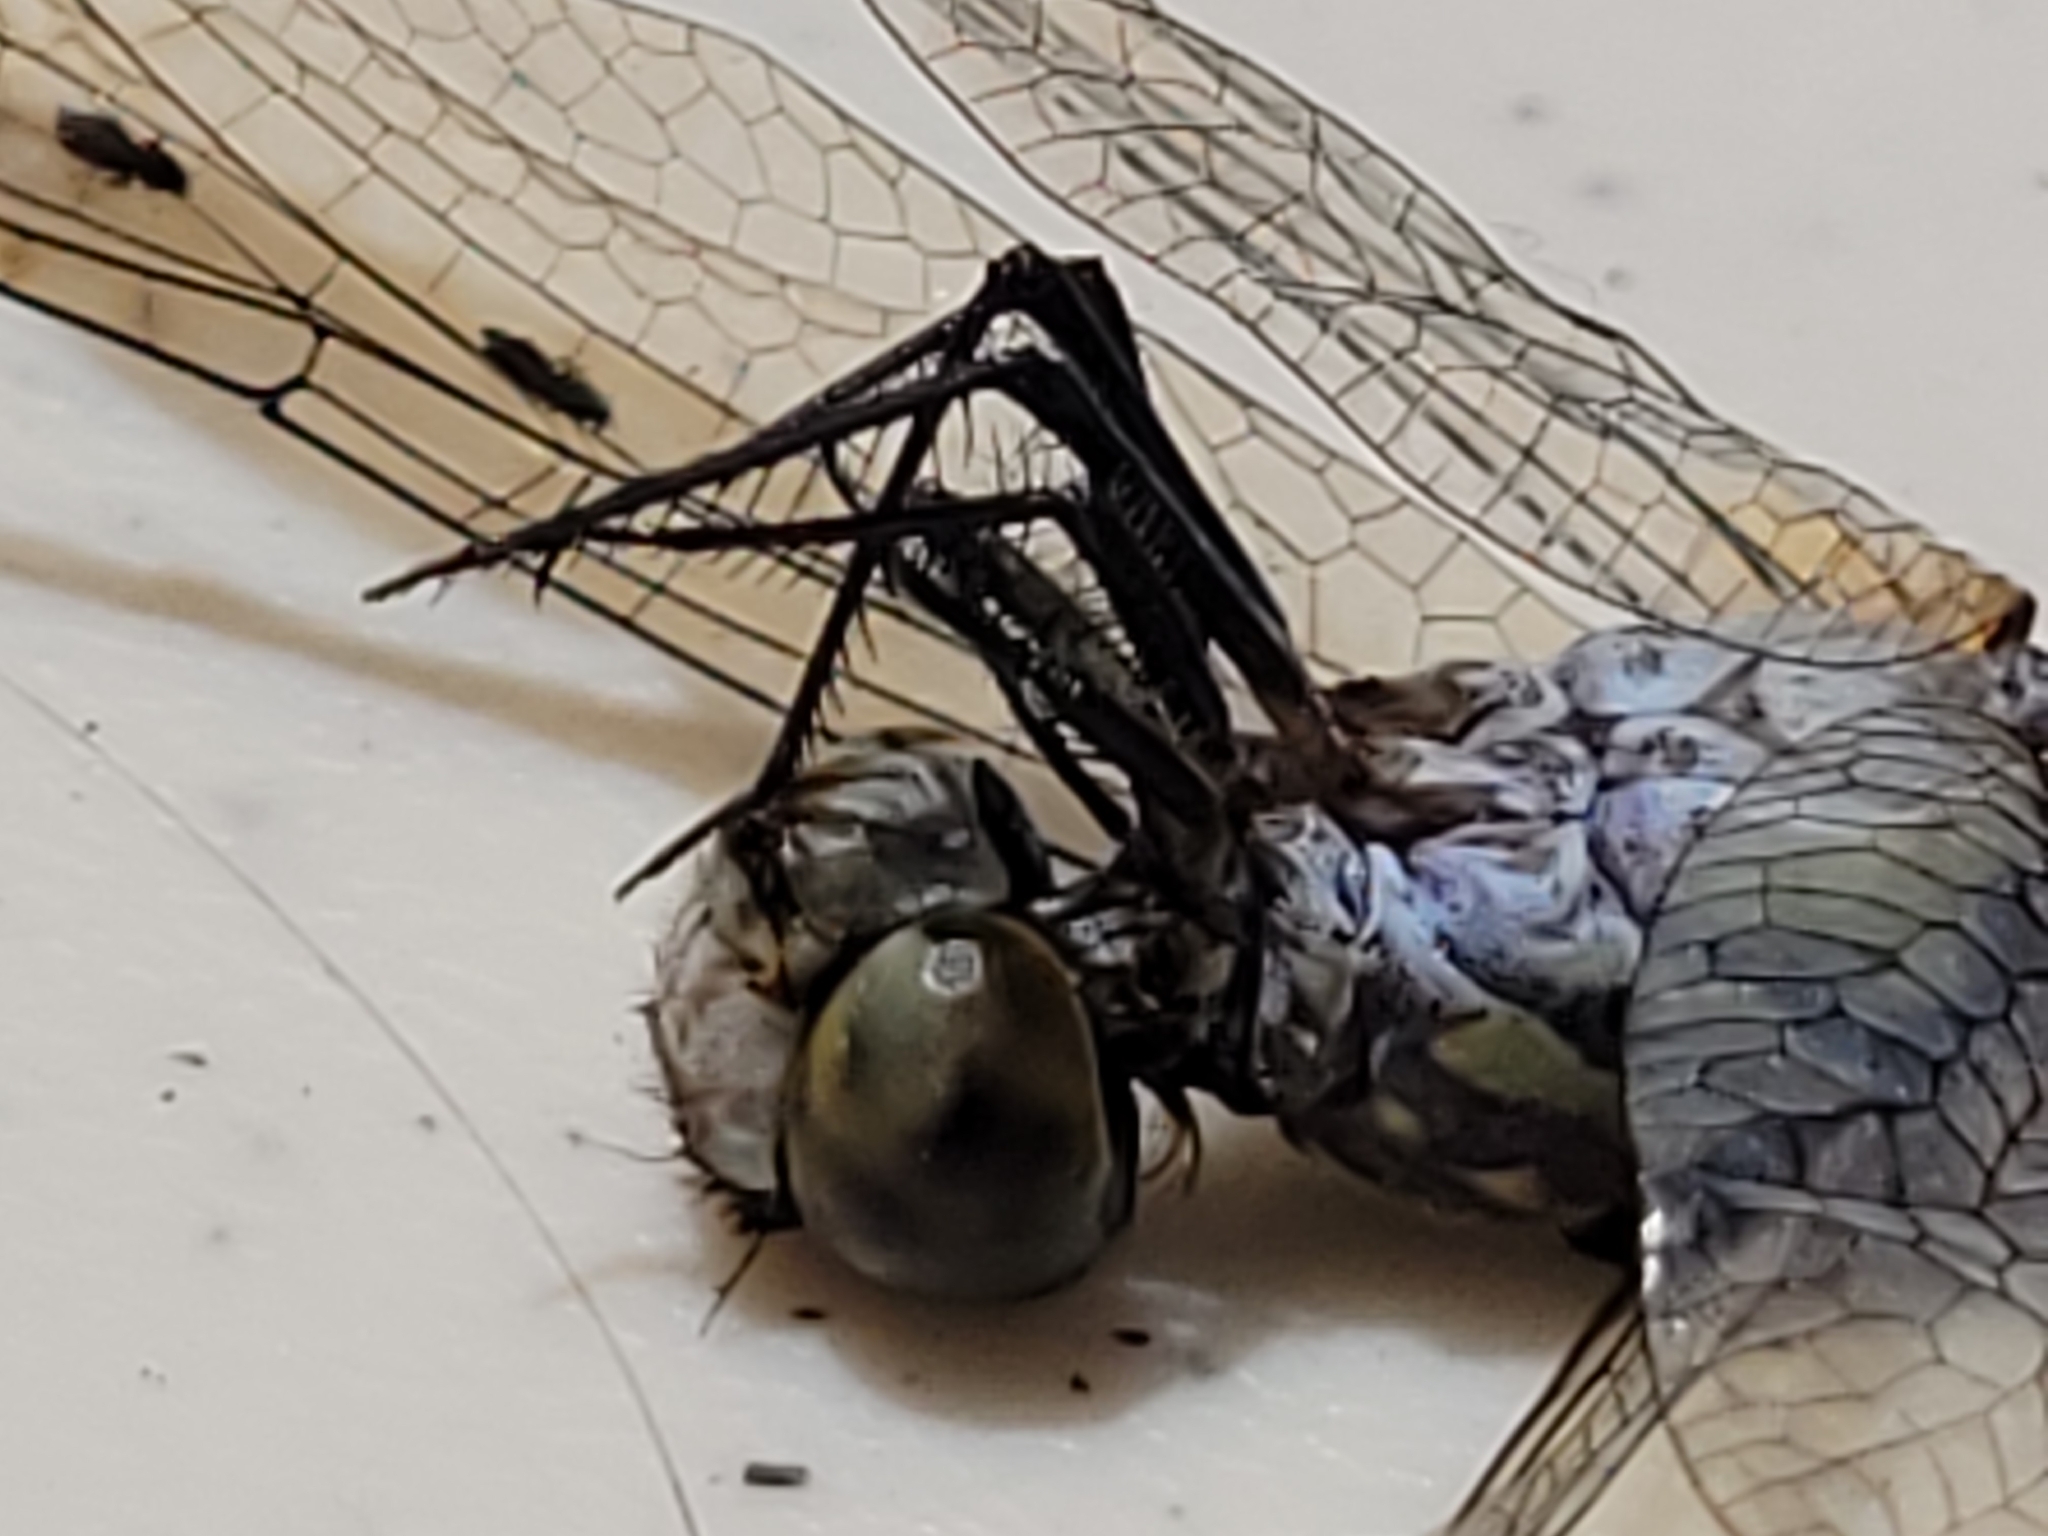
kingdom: Animalia
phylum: Arthropoda
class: Insecta
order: Odonata
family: Libellulidae
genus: Pachydiplax
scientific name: Pachydiplax longipennis
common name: Blue dasher
